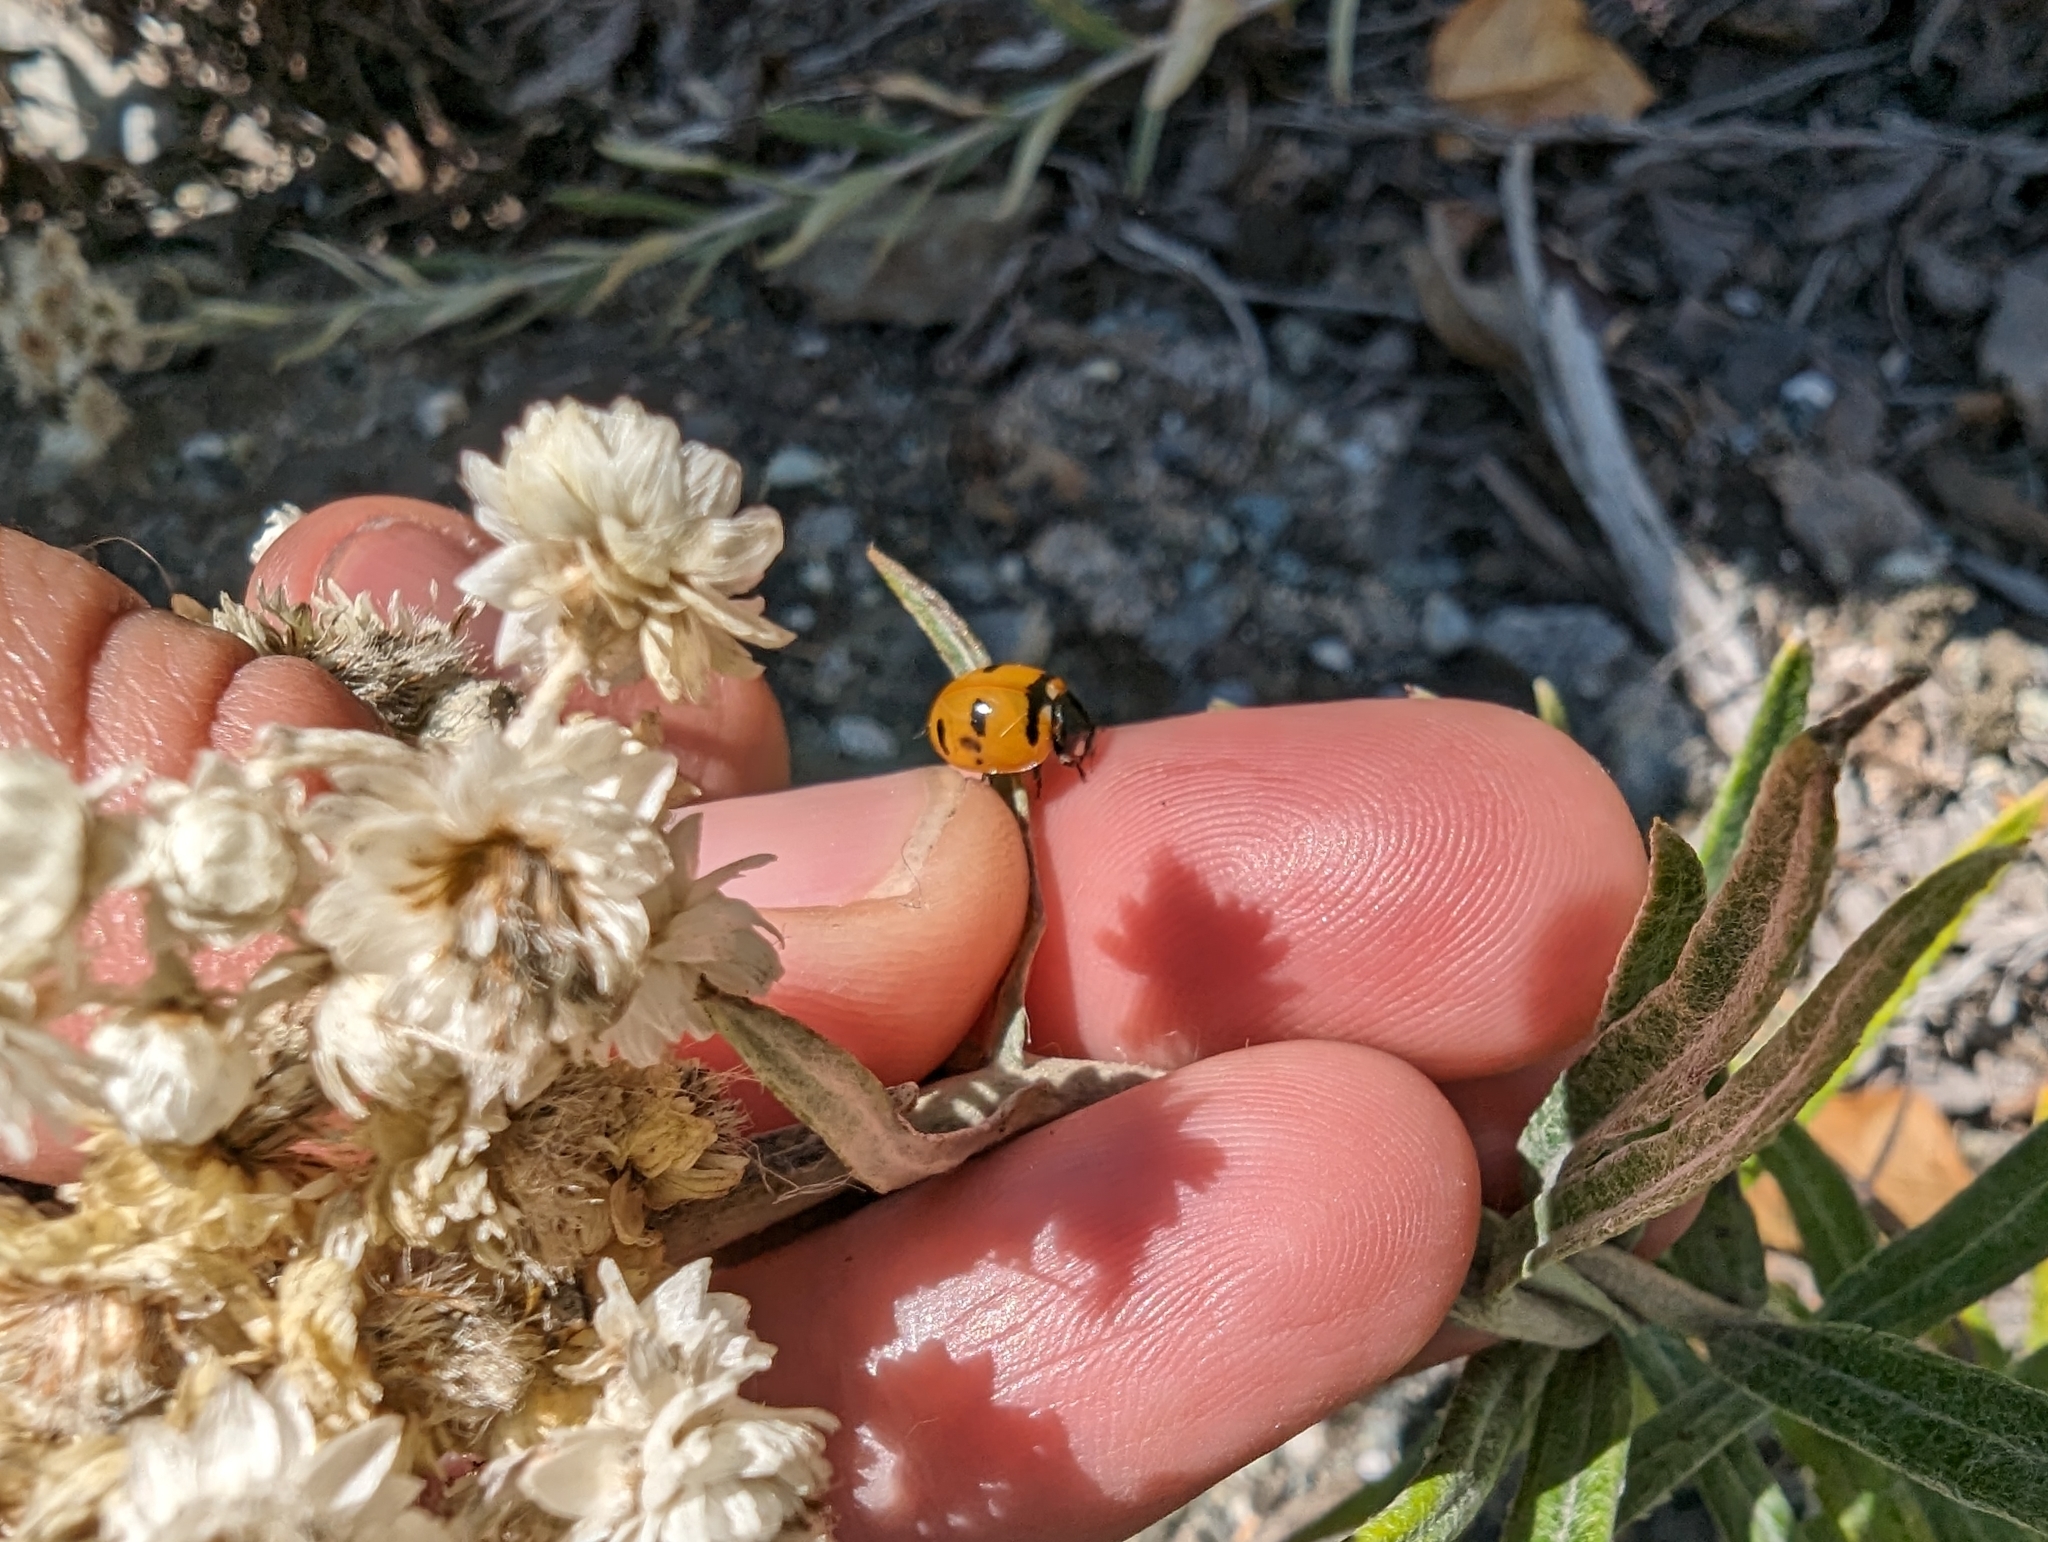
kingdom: Animalia
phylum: Arthropoda
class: Insecta
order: Coleoptera
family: Coccinellidae
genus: Coccinella
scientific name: Coccinella transversoguttata
